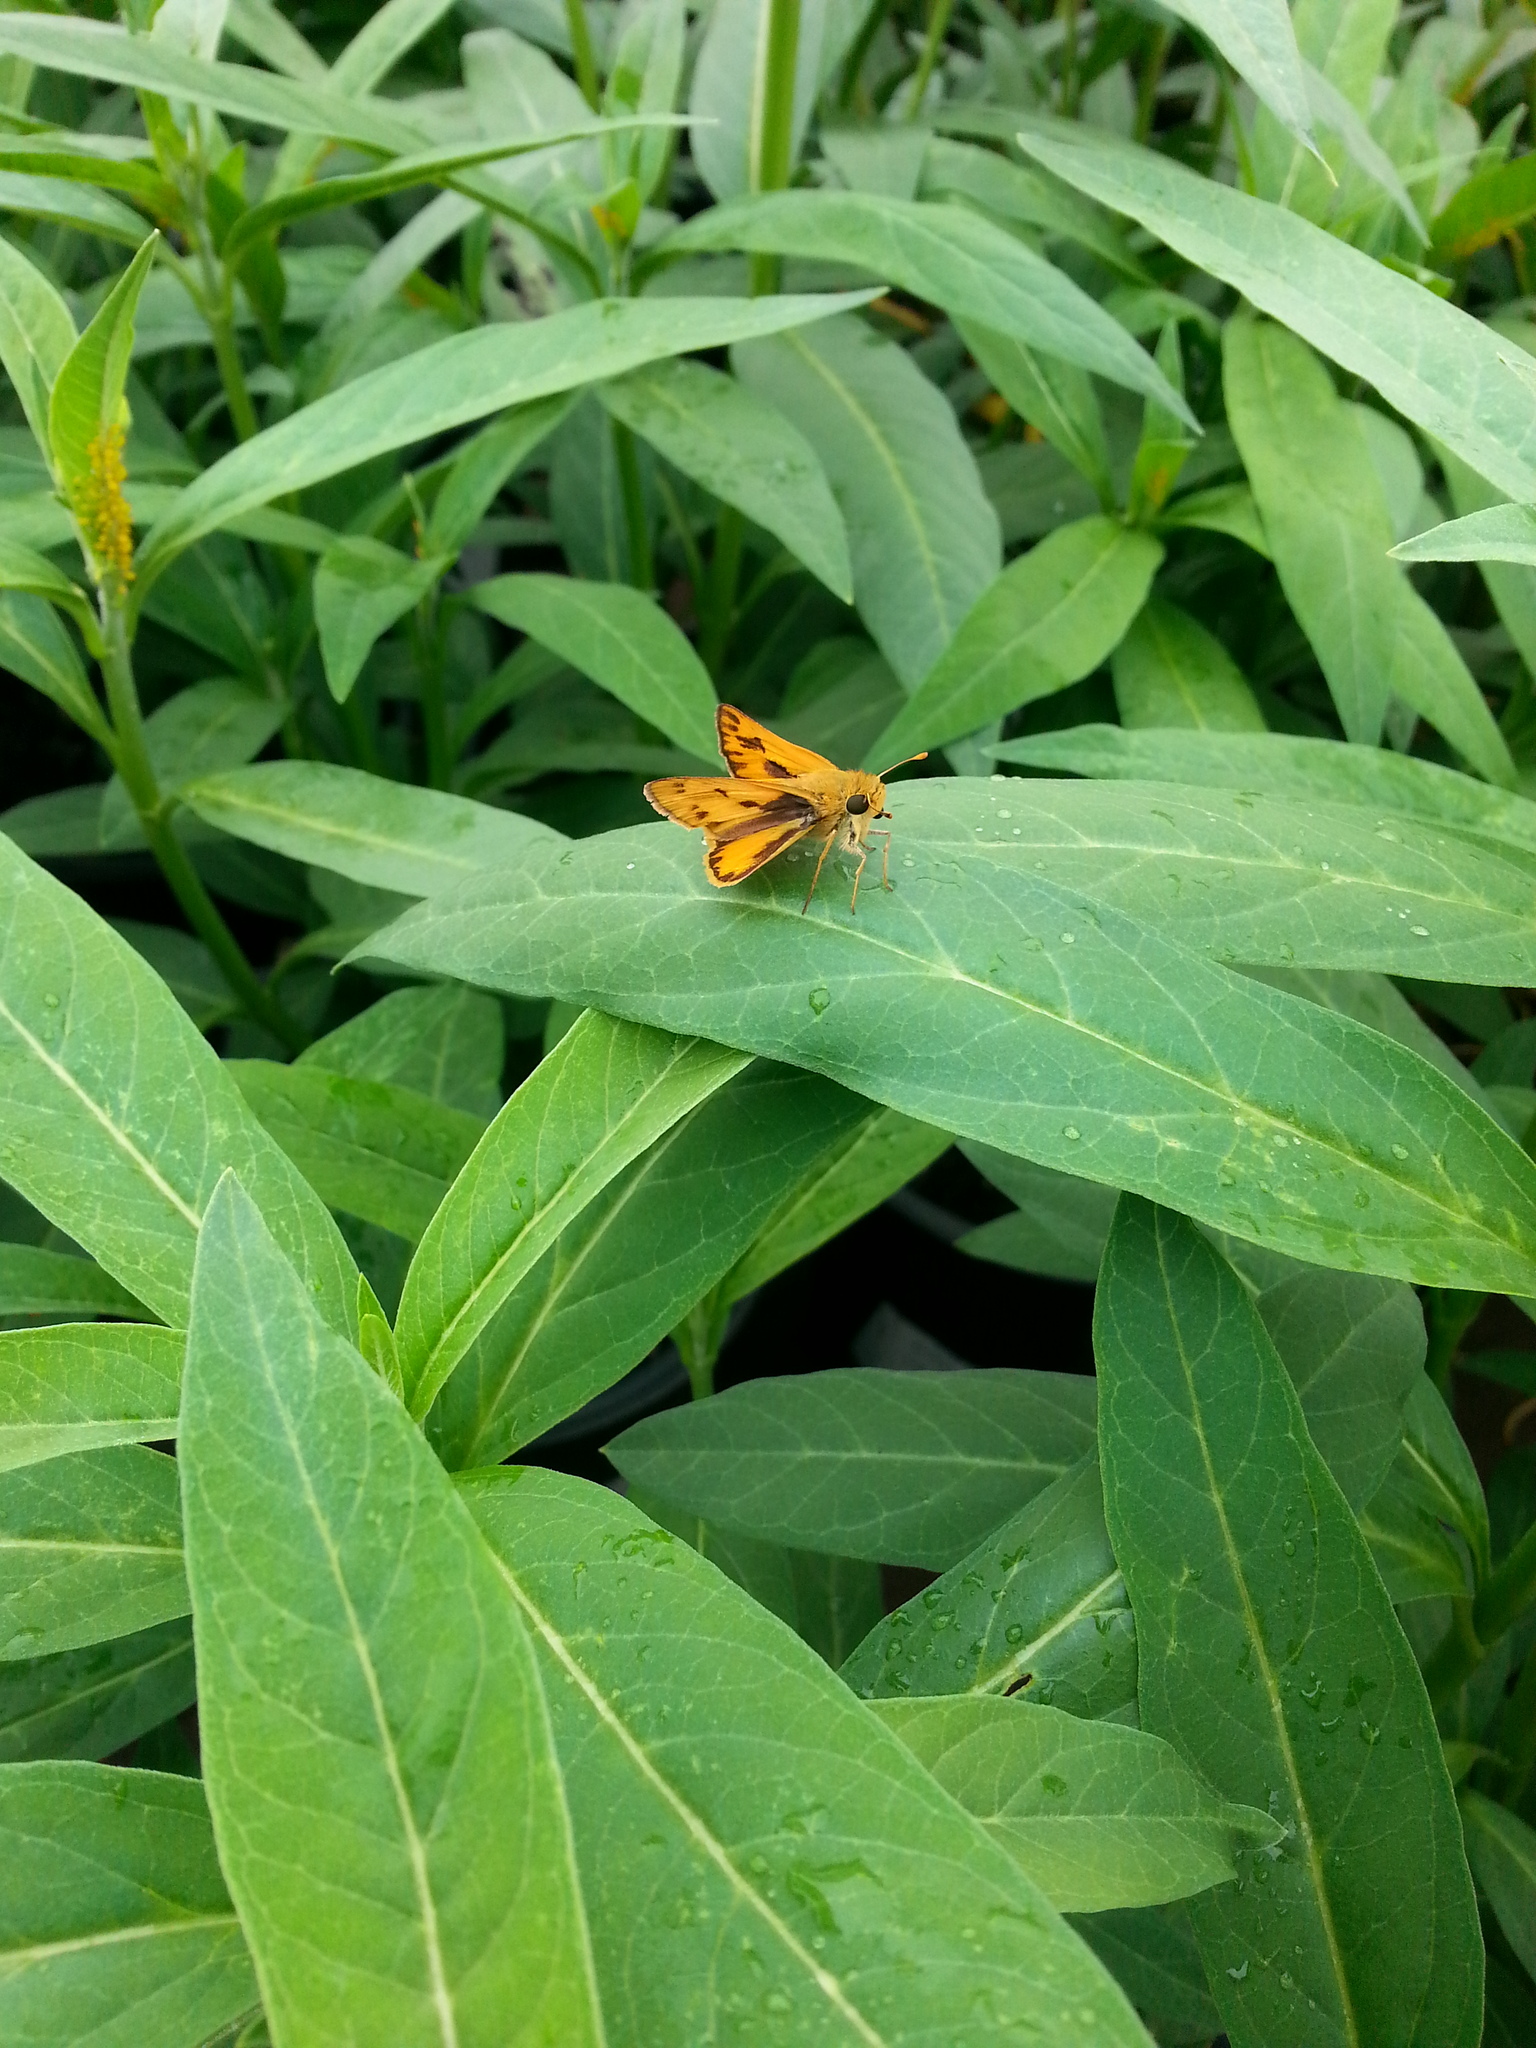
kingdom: Animalia
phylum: Arthropoda
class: Insecta
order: Lepidoptera
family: Hesperiidae
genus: Hylephila
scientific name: Hylephila phyleus
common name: Fiery skipper
